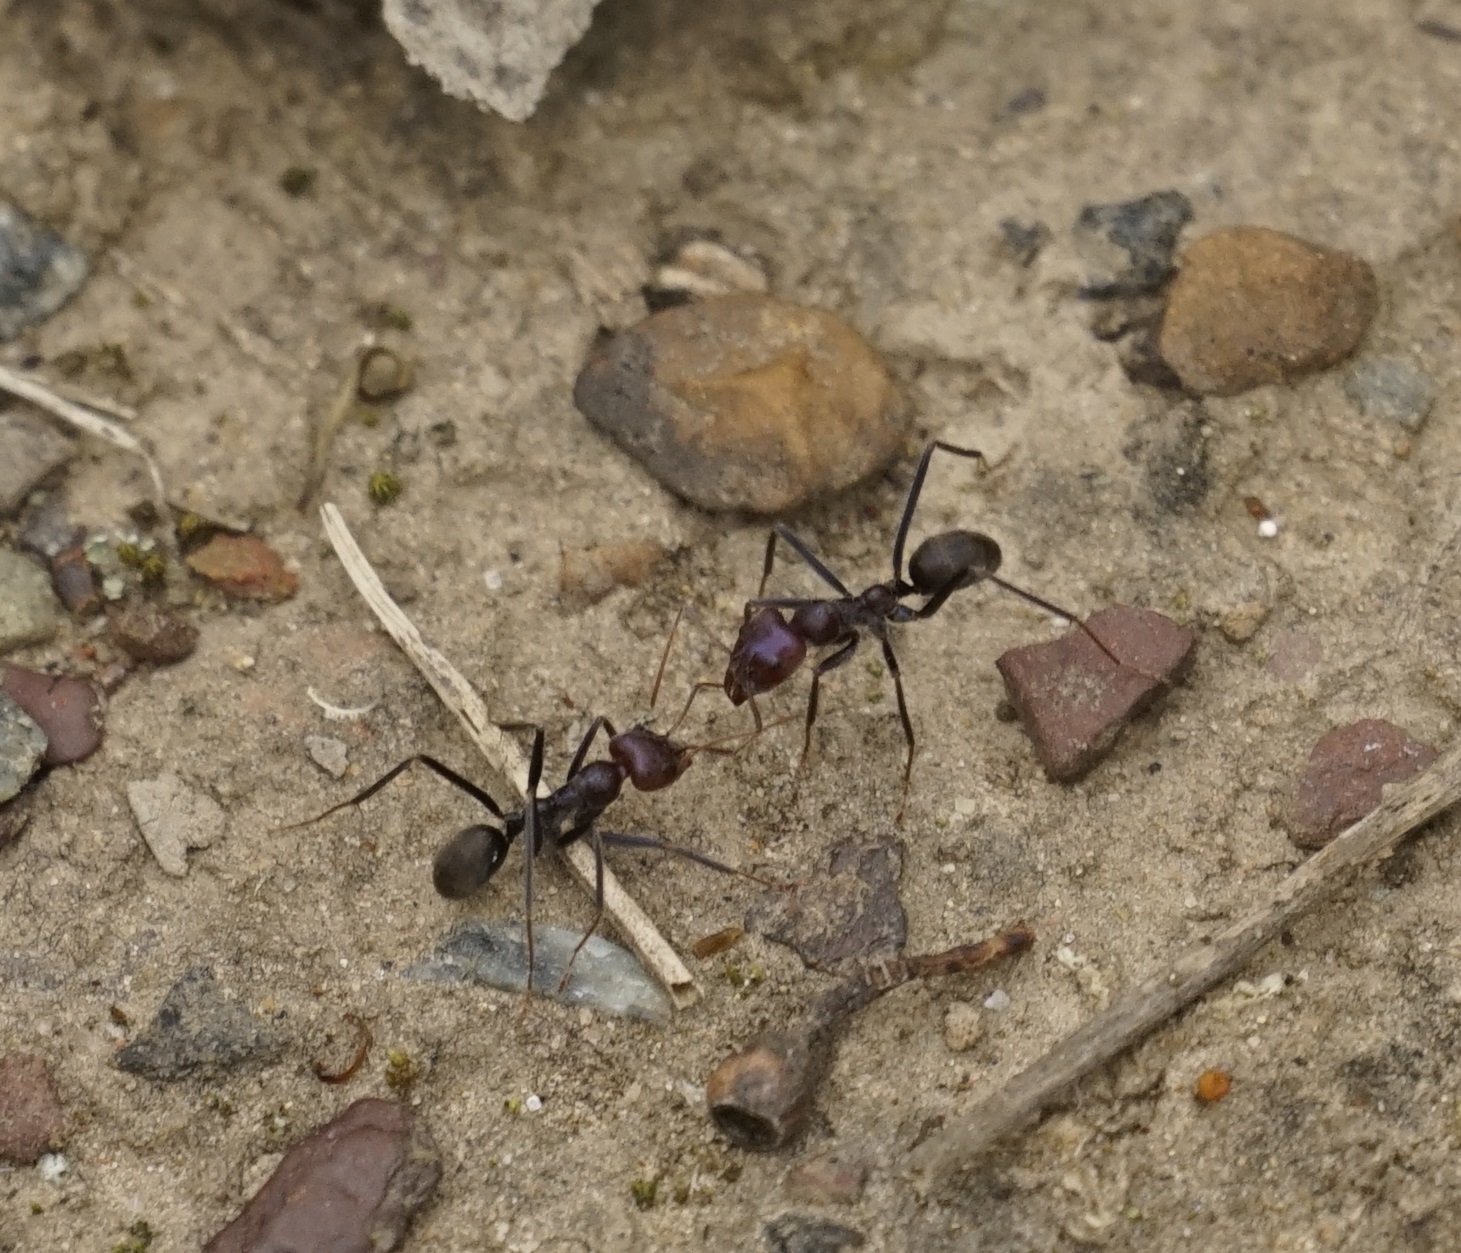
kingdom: Animalia
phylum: Arthropoda
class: Insecta
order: Hymenoptera
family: Formicidae
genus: Iridomyrmex
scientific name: Iridomyrmex purpureus
